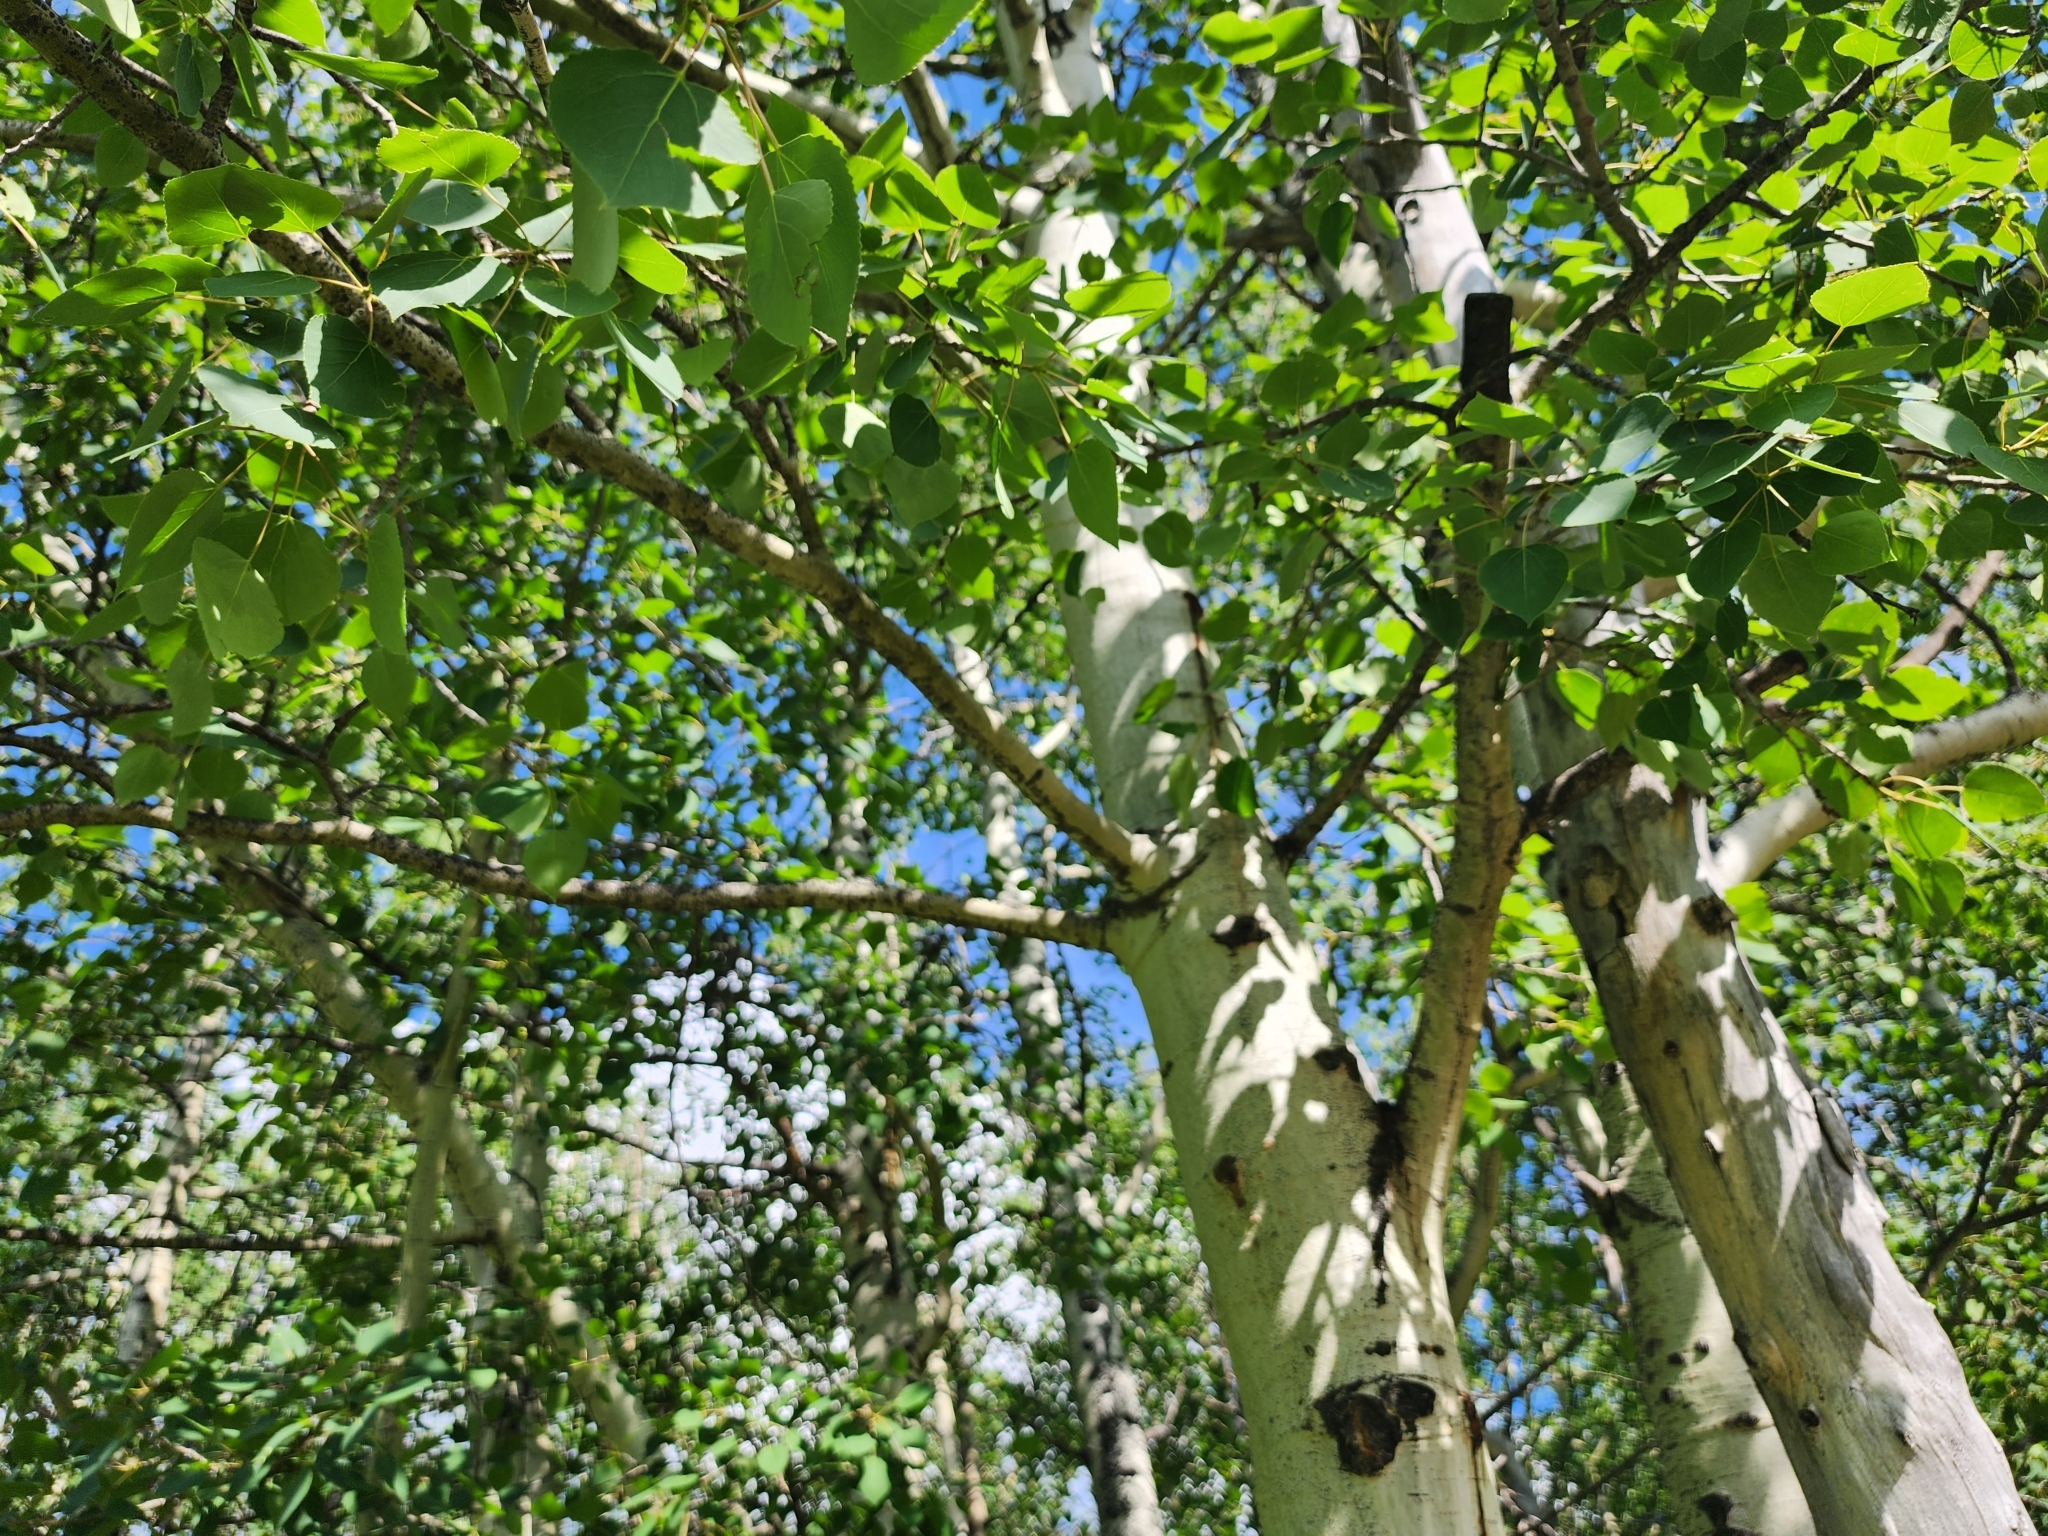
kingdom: Plantae
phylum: Tracheophyta
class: Magnoliopsida
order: Malpighiales
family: Salicaceae
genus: Populus
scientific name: Populus tremuloides
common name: Quaking aspen
